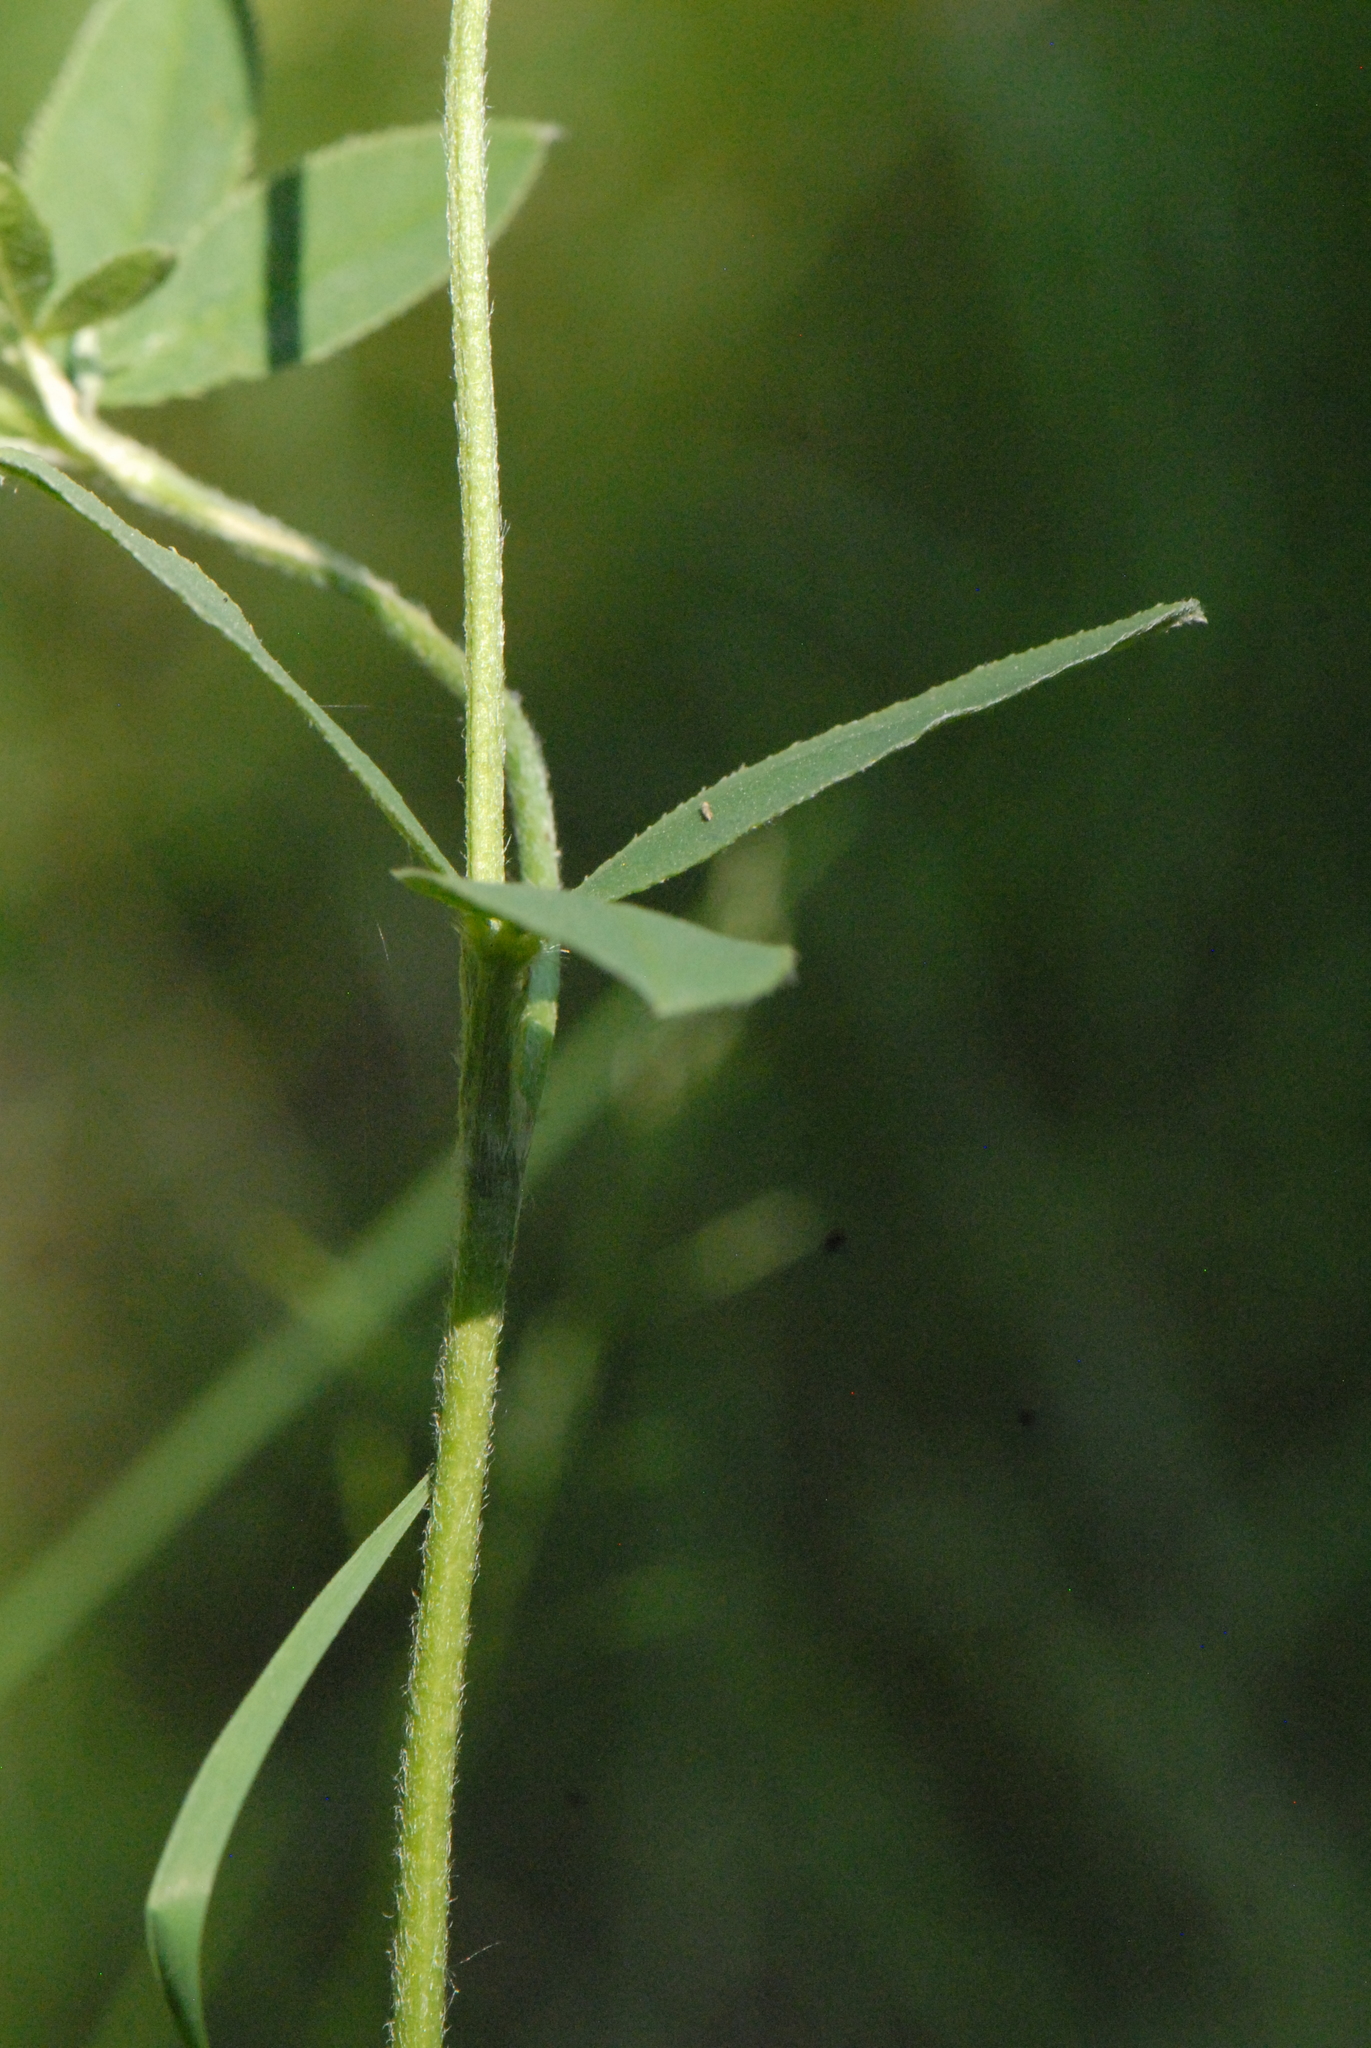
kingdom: Plantae
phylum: Tracheophyta
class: Magnoliopsida
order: Fabales
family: Fabaceae
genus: Trifolium
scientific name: Trifolium montanum
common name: Mountain clover
